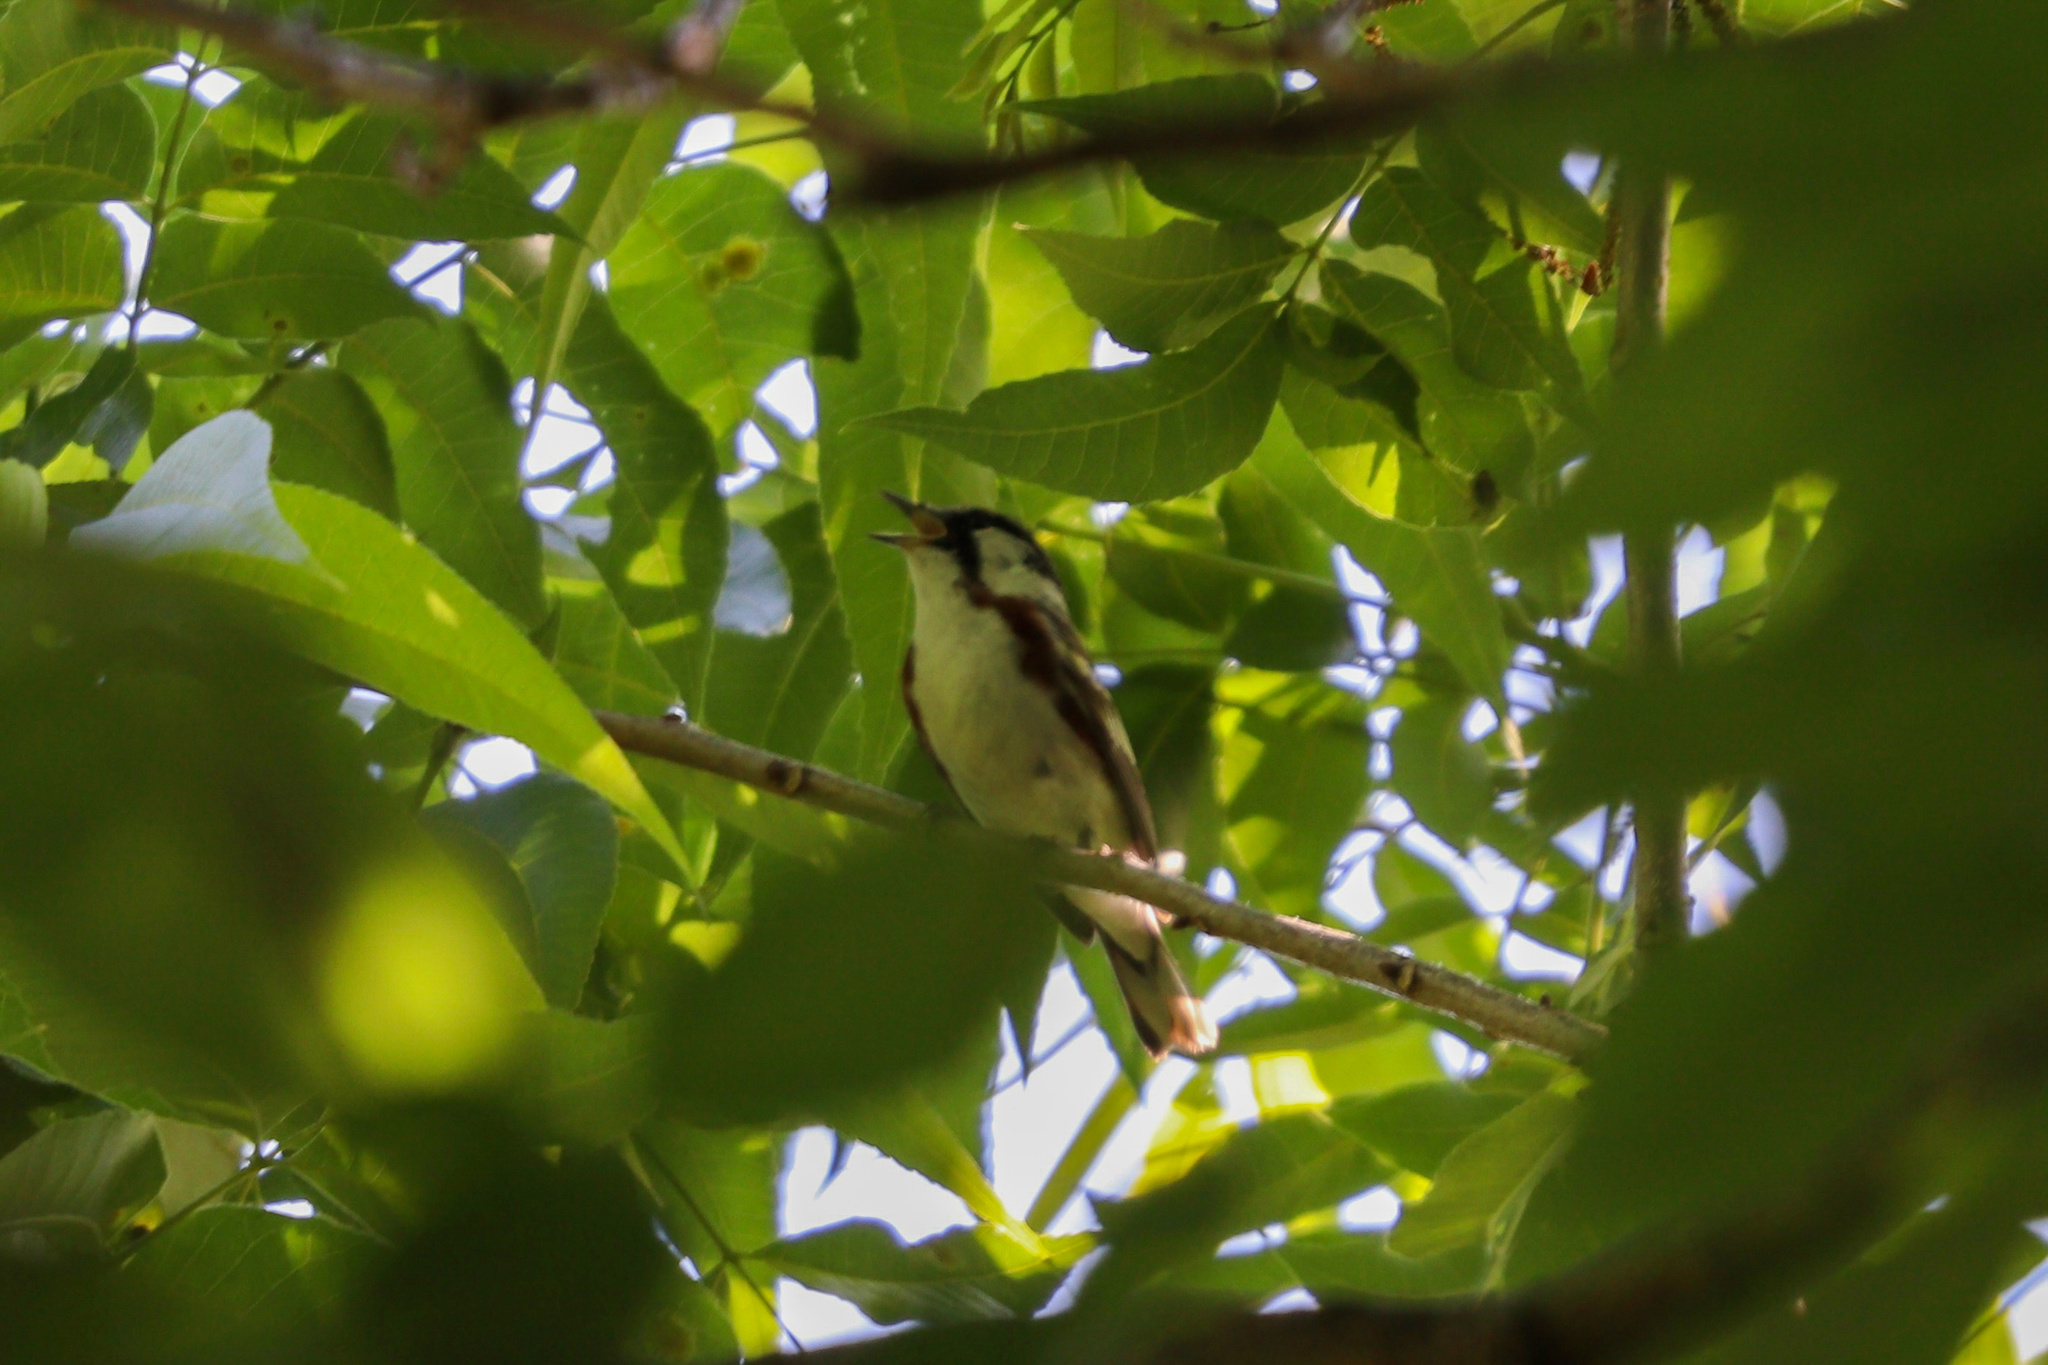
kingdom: Animalia
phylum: Chordata
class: Aves
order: Passeriformes
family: Parulidae
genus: Setophaga
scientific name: Setophaga pensylvanica
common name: Chestnut-sided warbler
